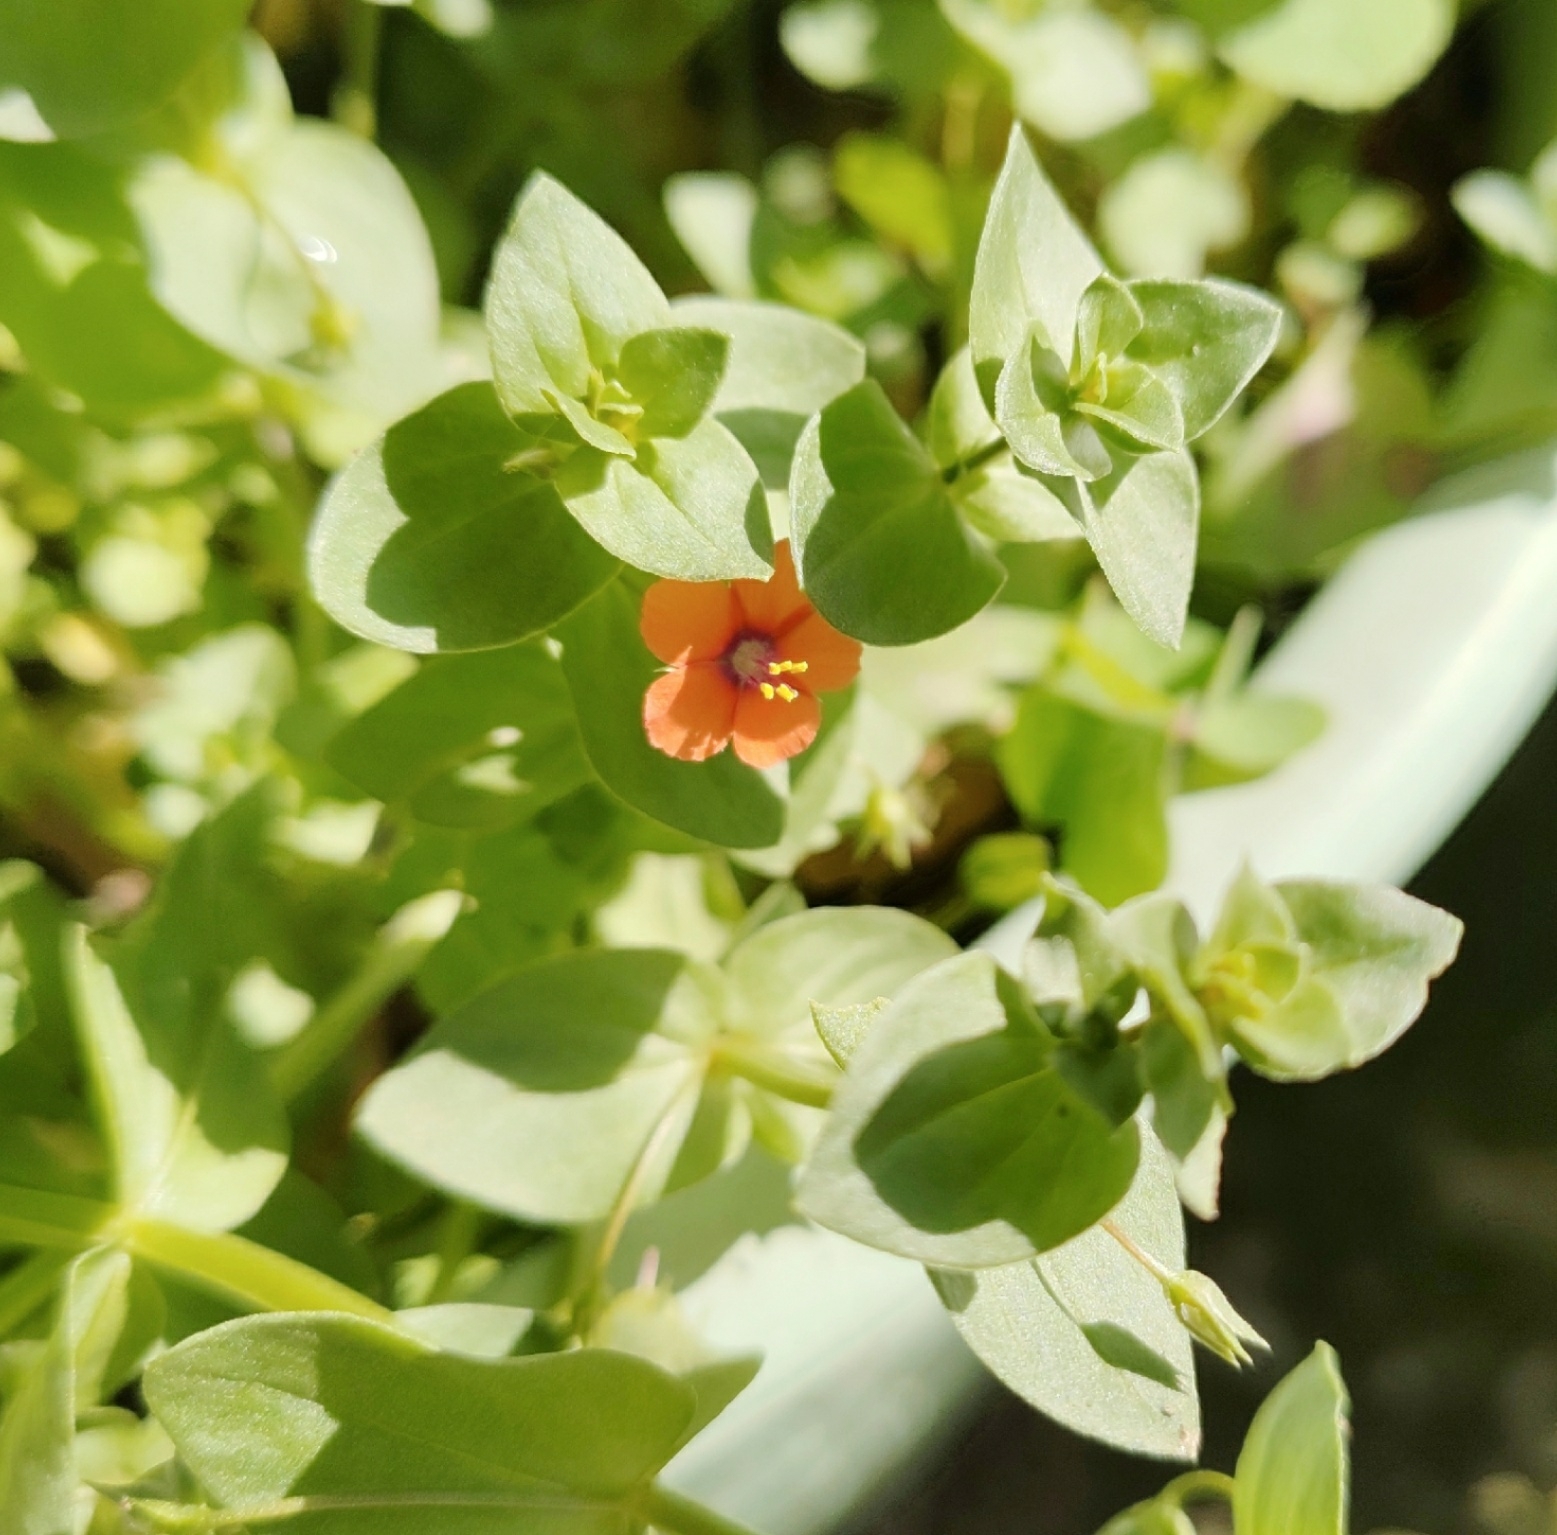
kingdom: Plantae
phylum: Tracheophyta
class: Magnoliopsida
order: Ericales
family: Primulaceae
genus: Lysimachia
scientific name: Lysimachia arvensis
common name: Scarlet pimpernel
